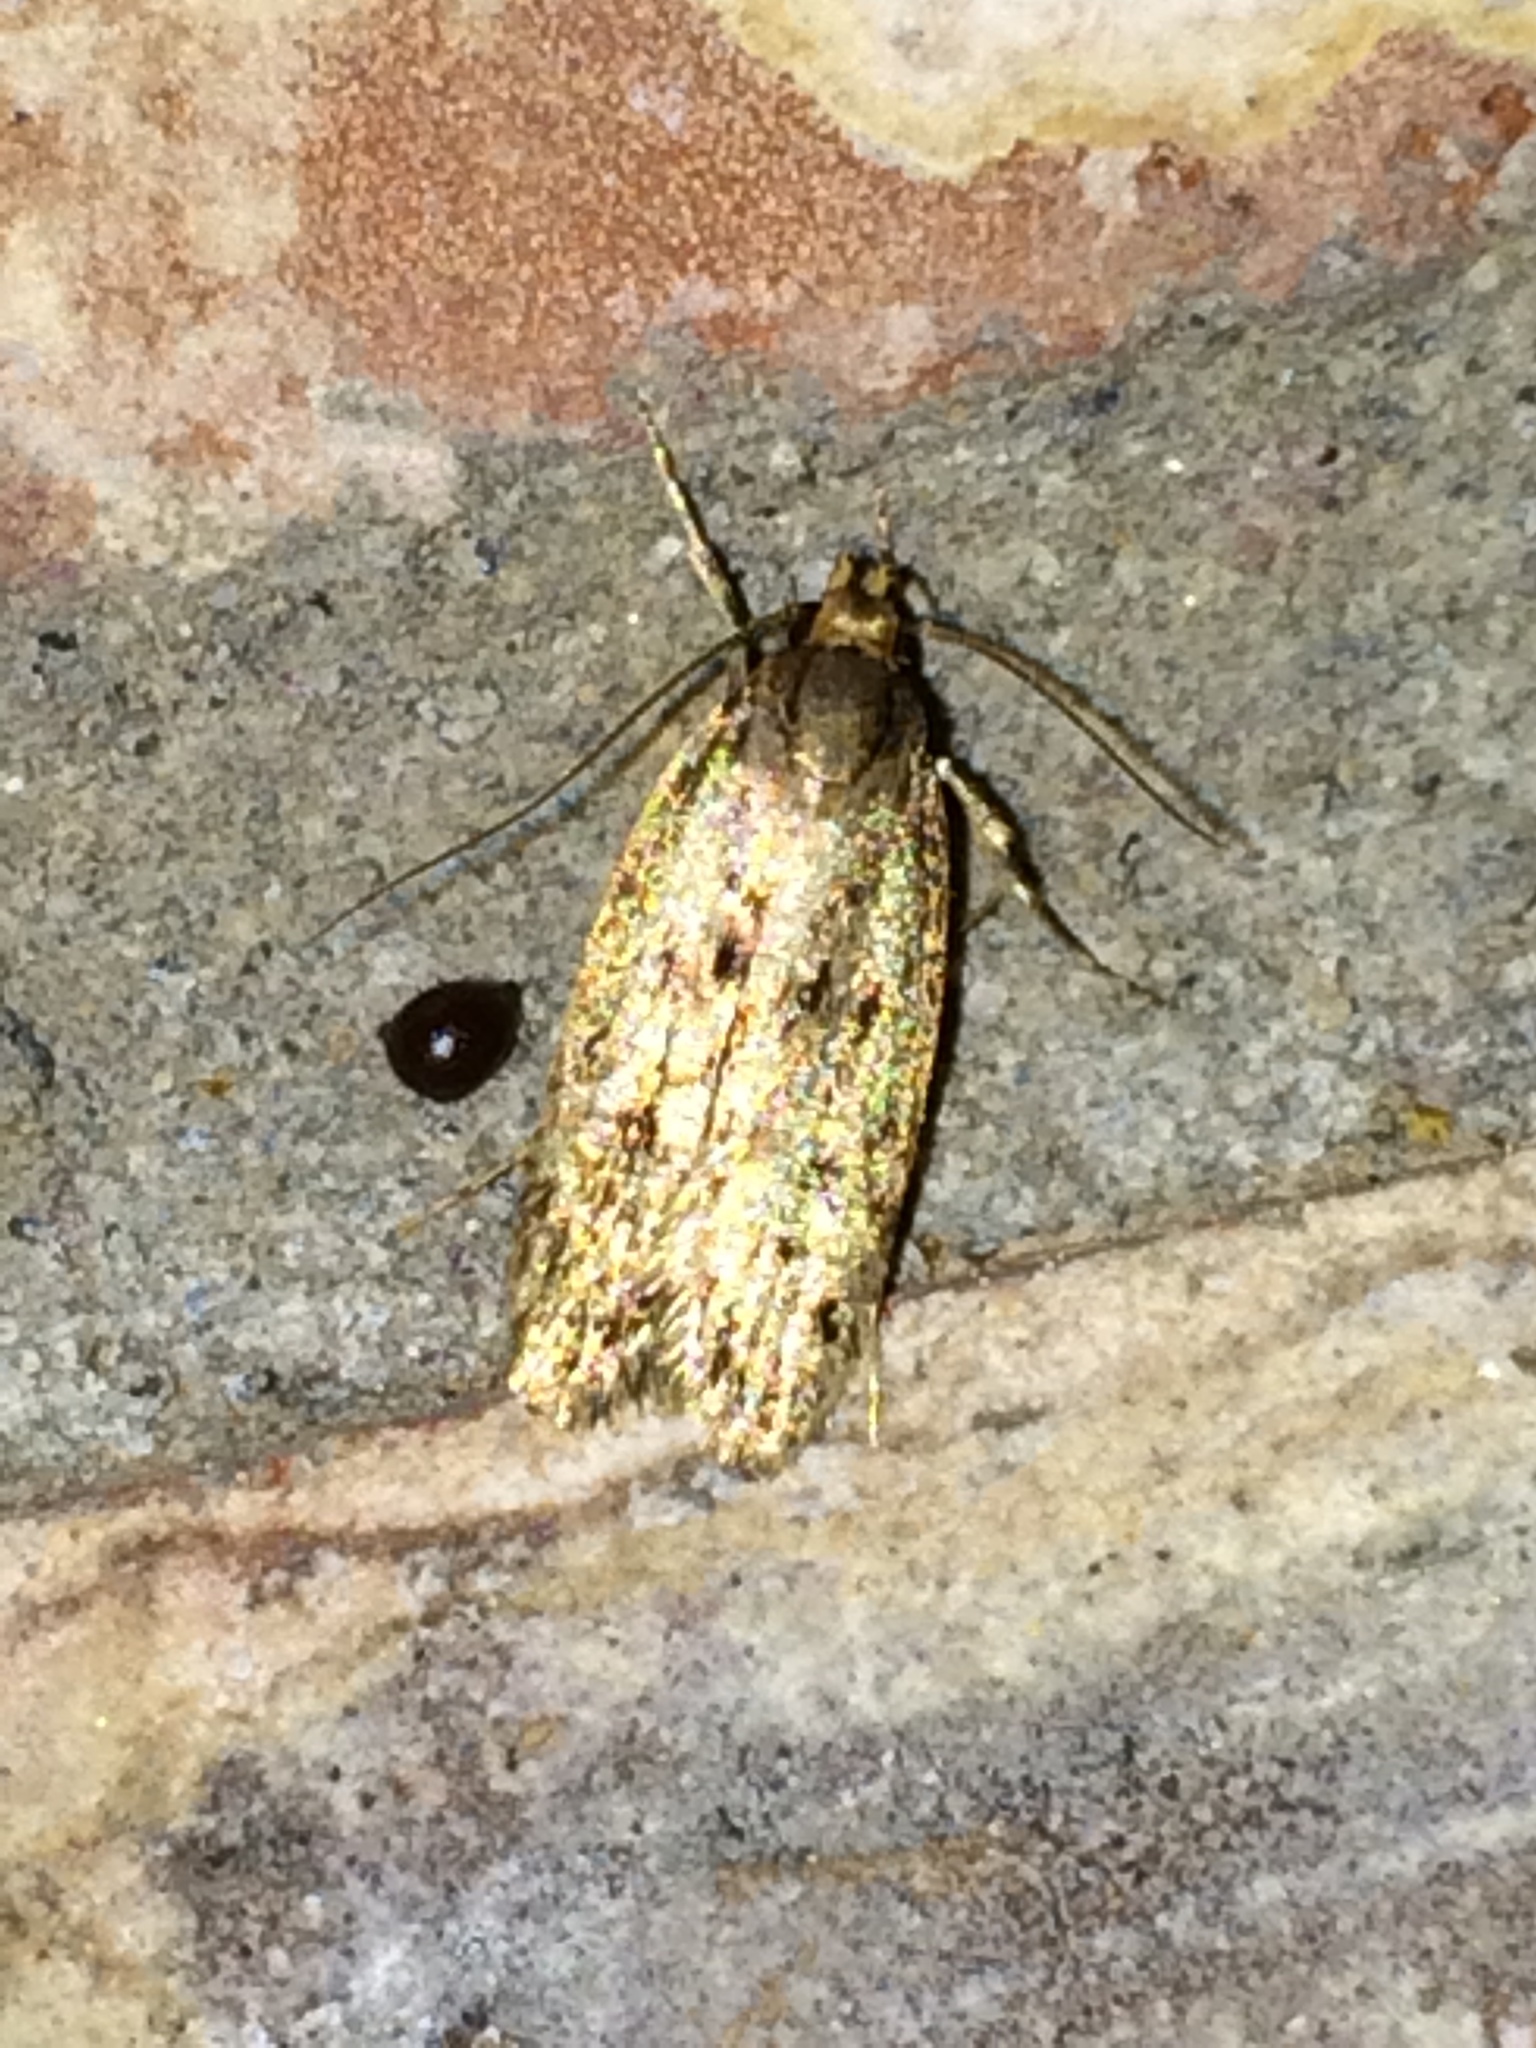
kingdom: Animalia
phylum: Arthropoda
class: Insecta
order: Lepidoptera
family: Oecophoridae
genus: Hofmannophila
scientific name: Hofmannophila pseudospretella
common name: Brown house moth
